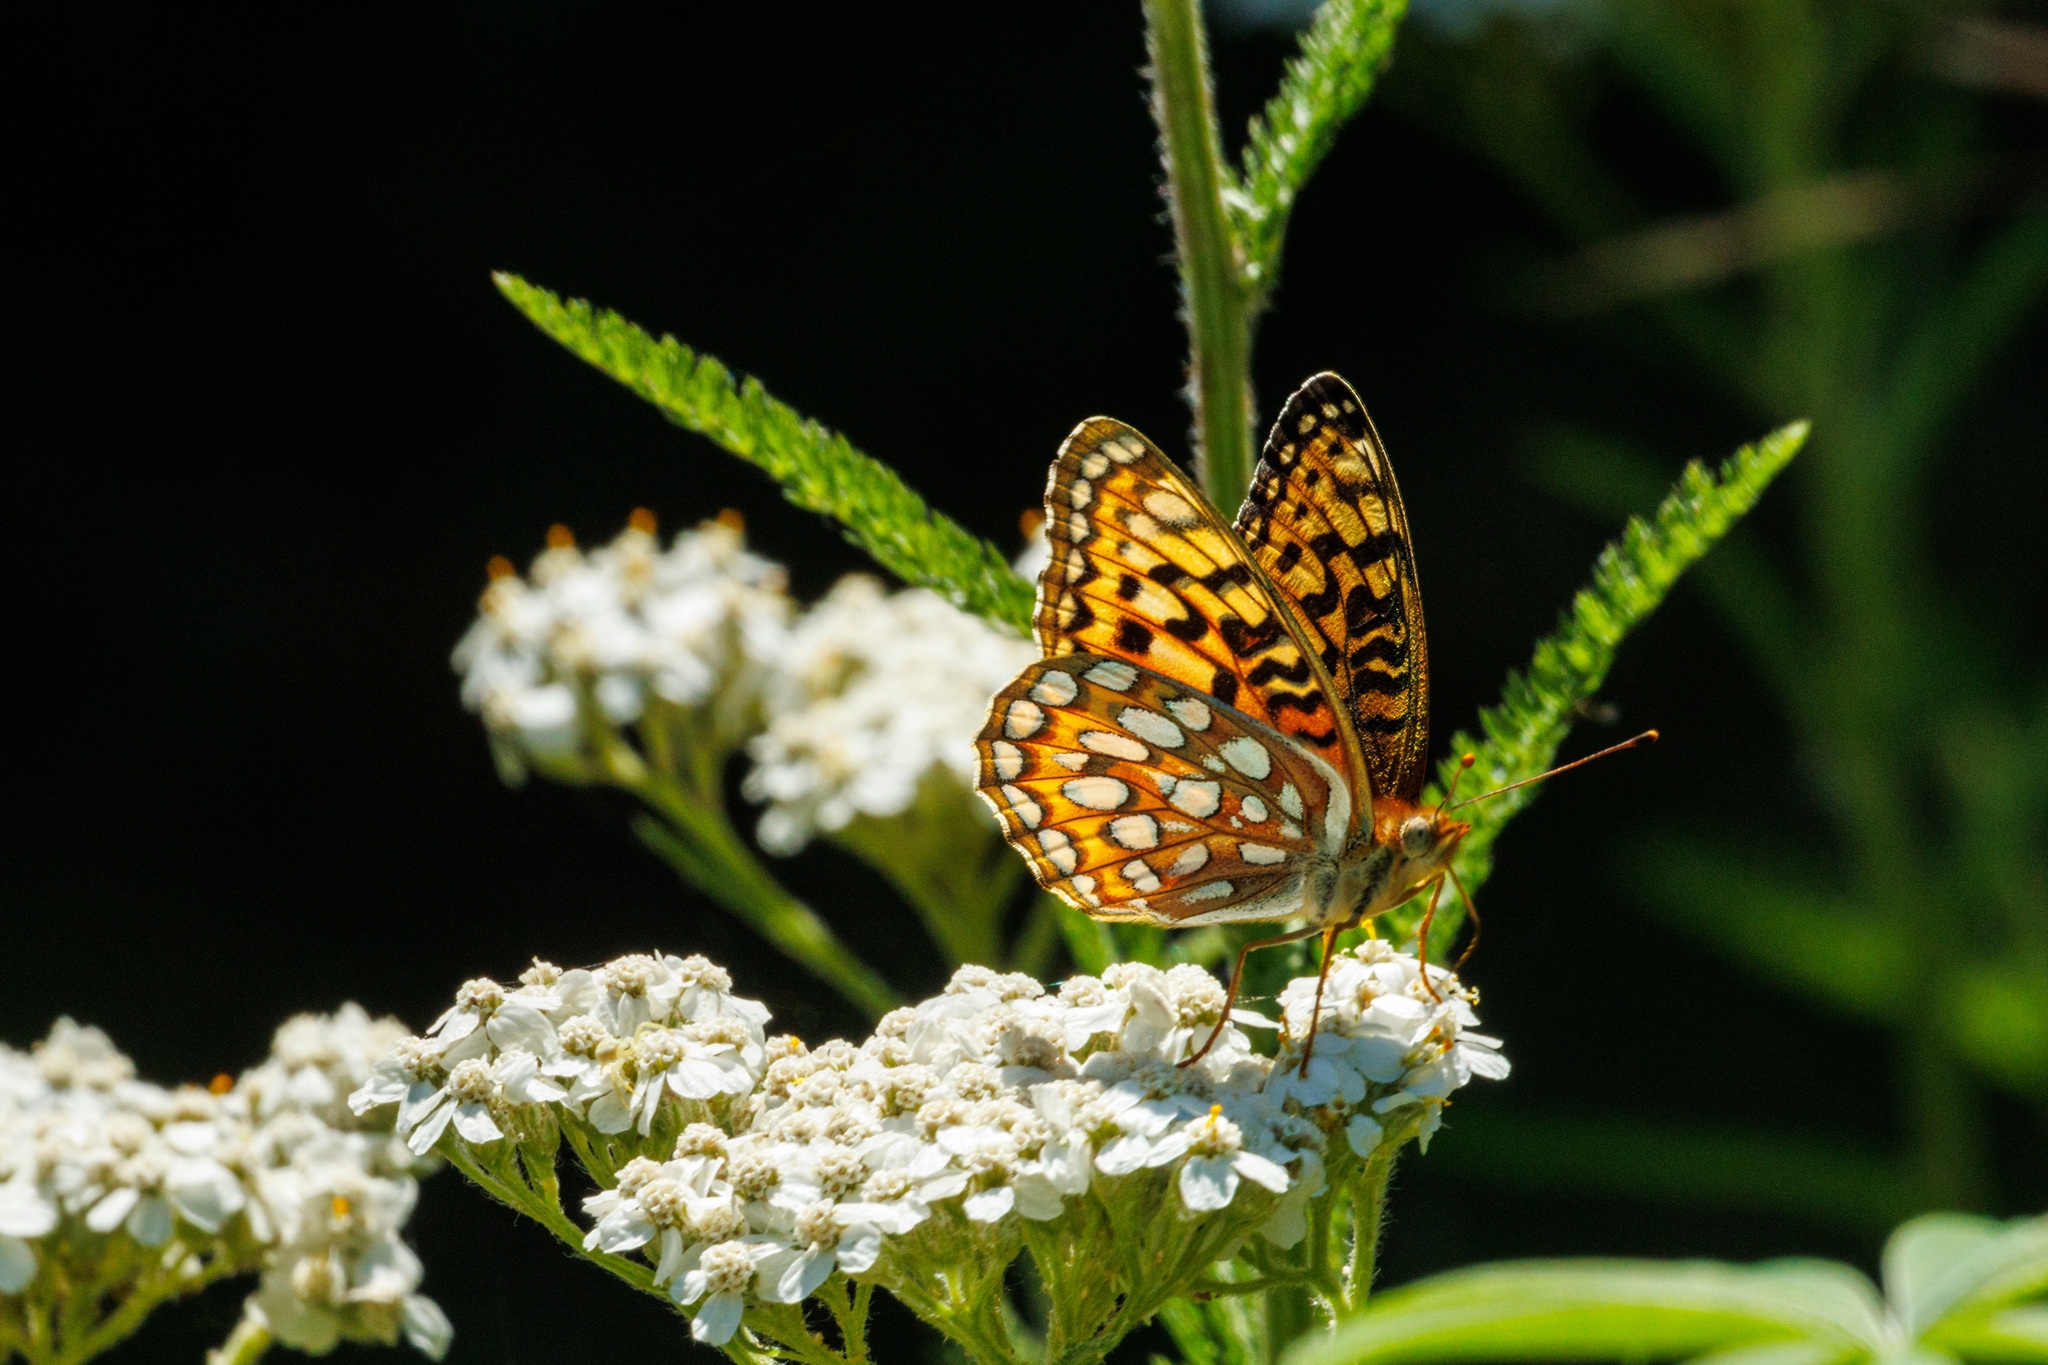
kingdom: Animalia
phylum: Arthropoda
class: Insecta
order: Lepidoptera
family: Nymphalidae
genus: Argynnis
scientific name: Argynnis coronis
